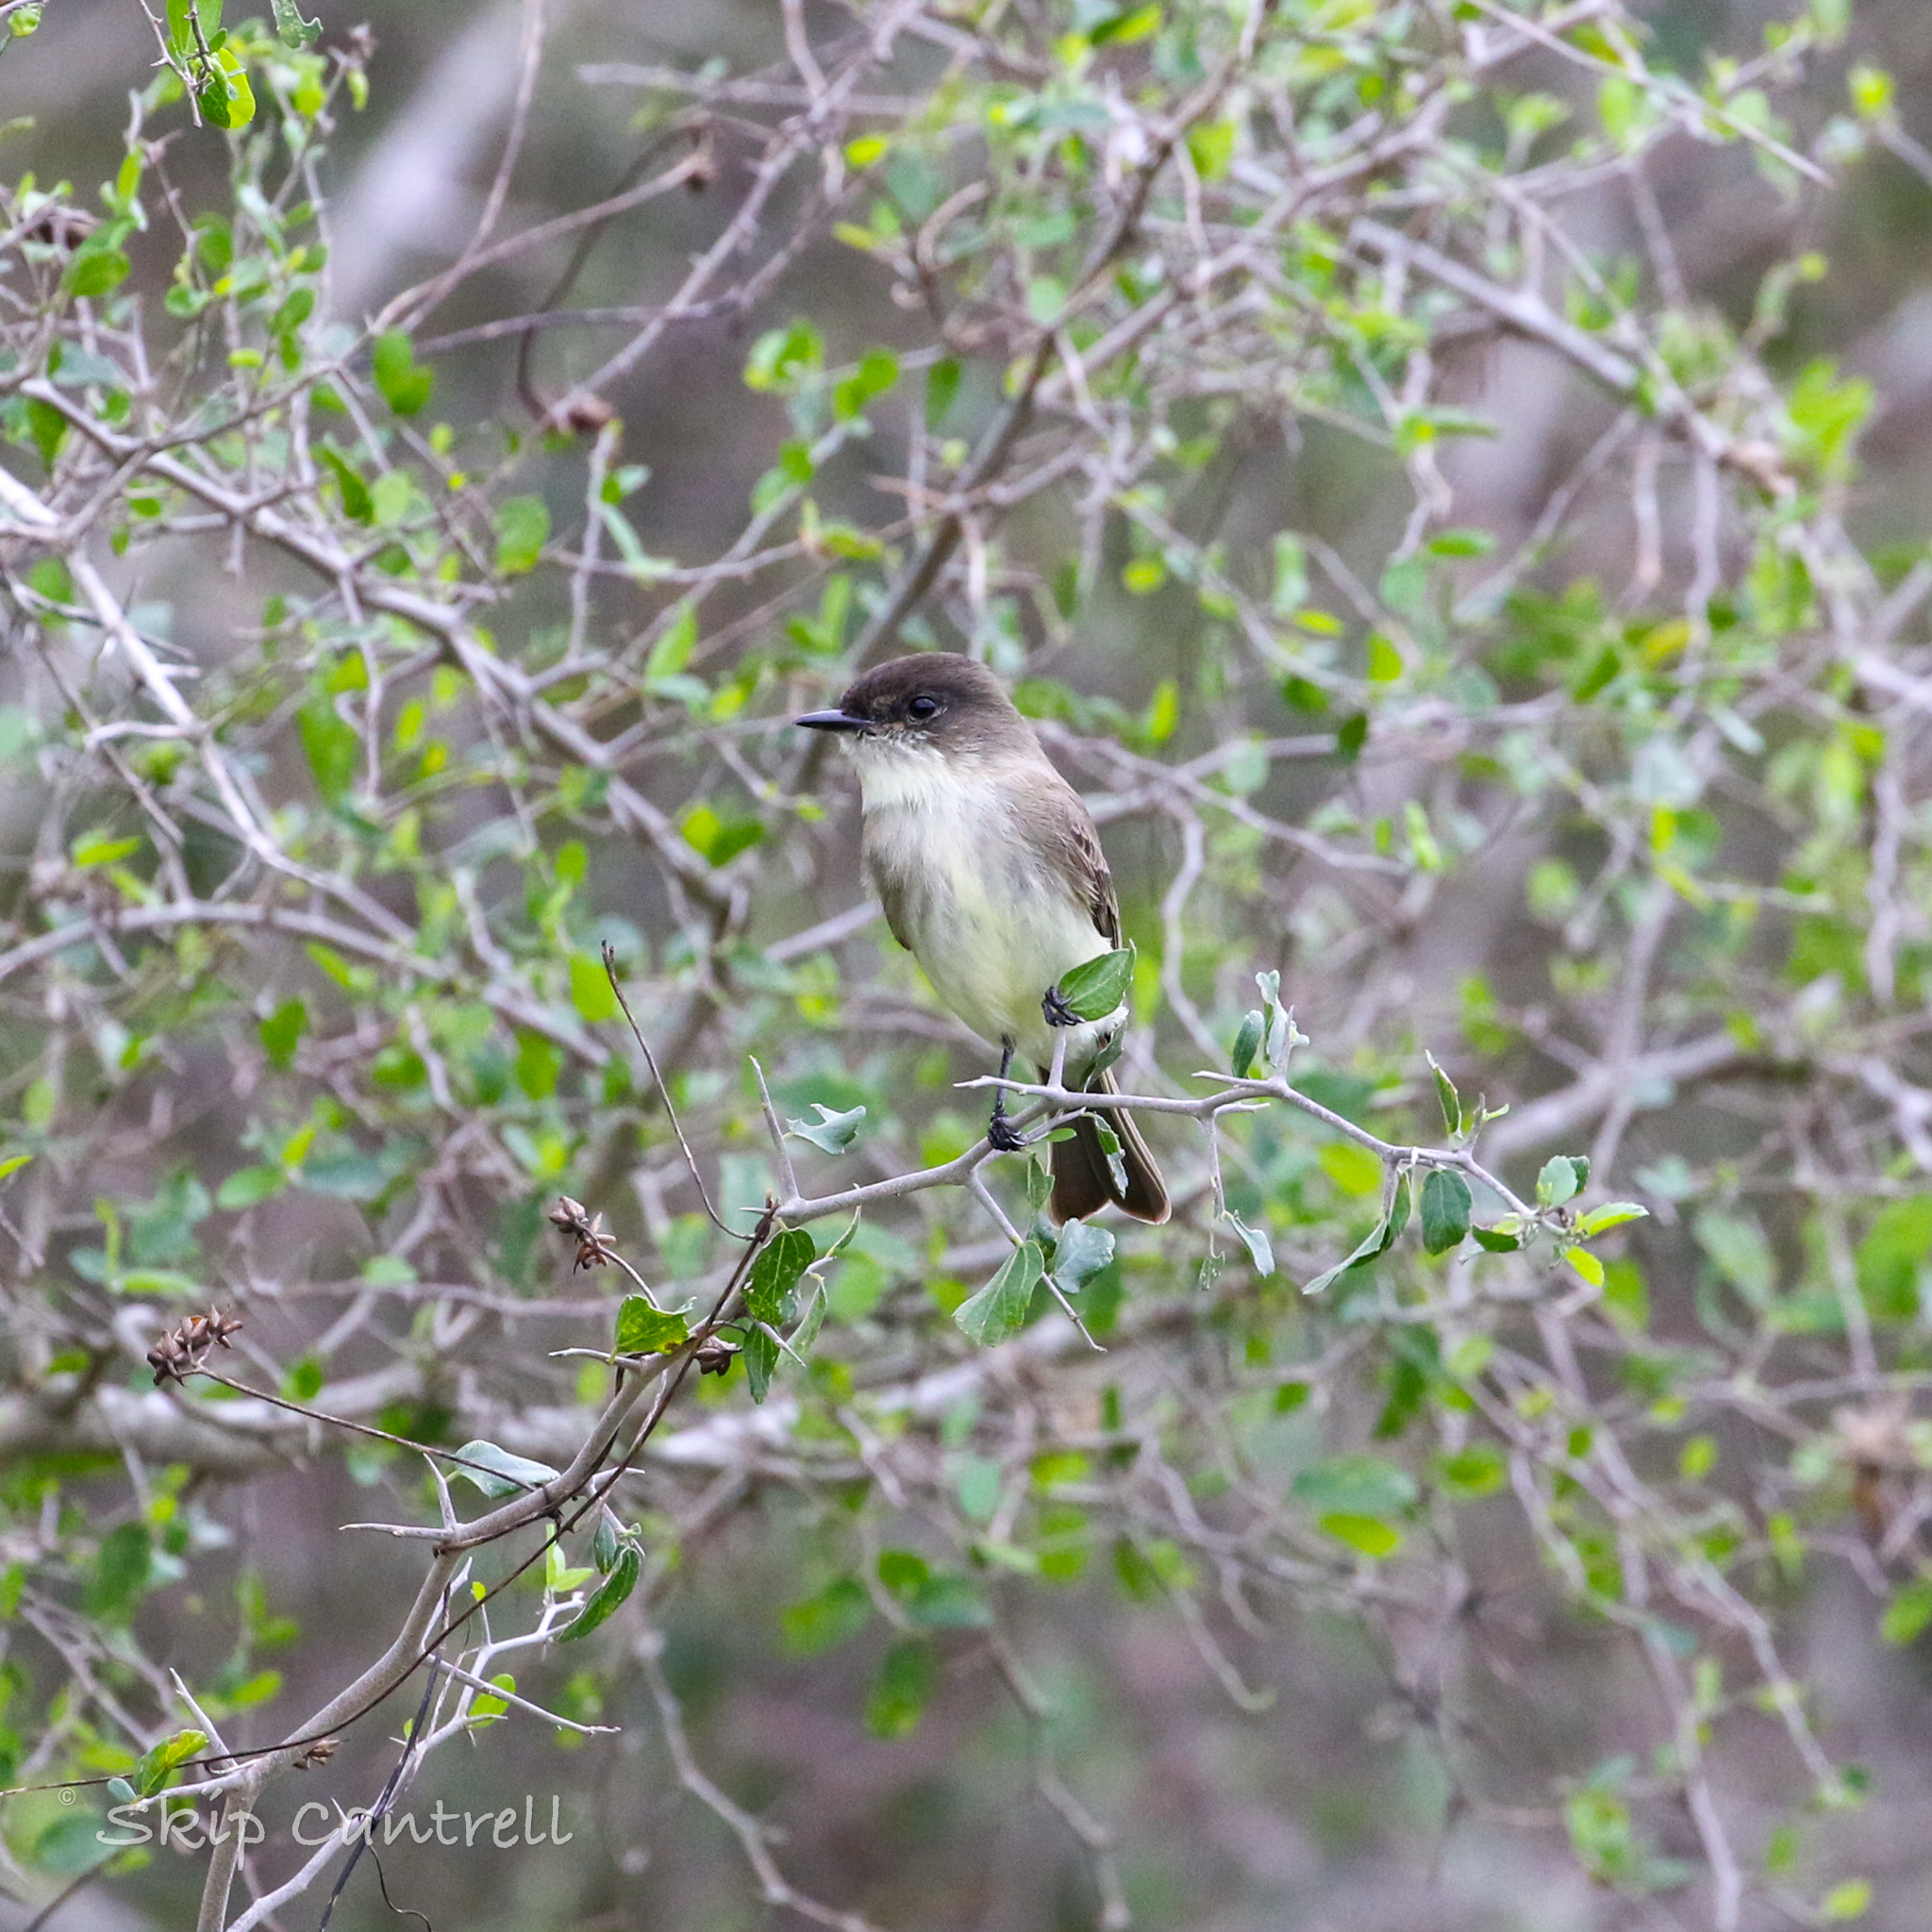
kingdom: Animalia
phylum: Chordata
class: Aves
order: Passeriformes
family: Tyrannidae
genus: Sayornis
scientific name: Sayornis phoebe
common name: Eastern phoebe
